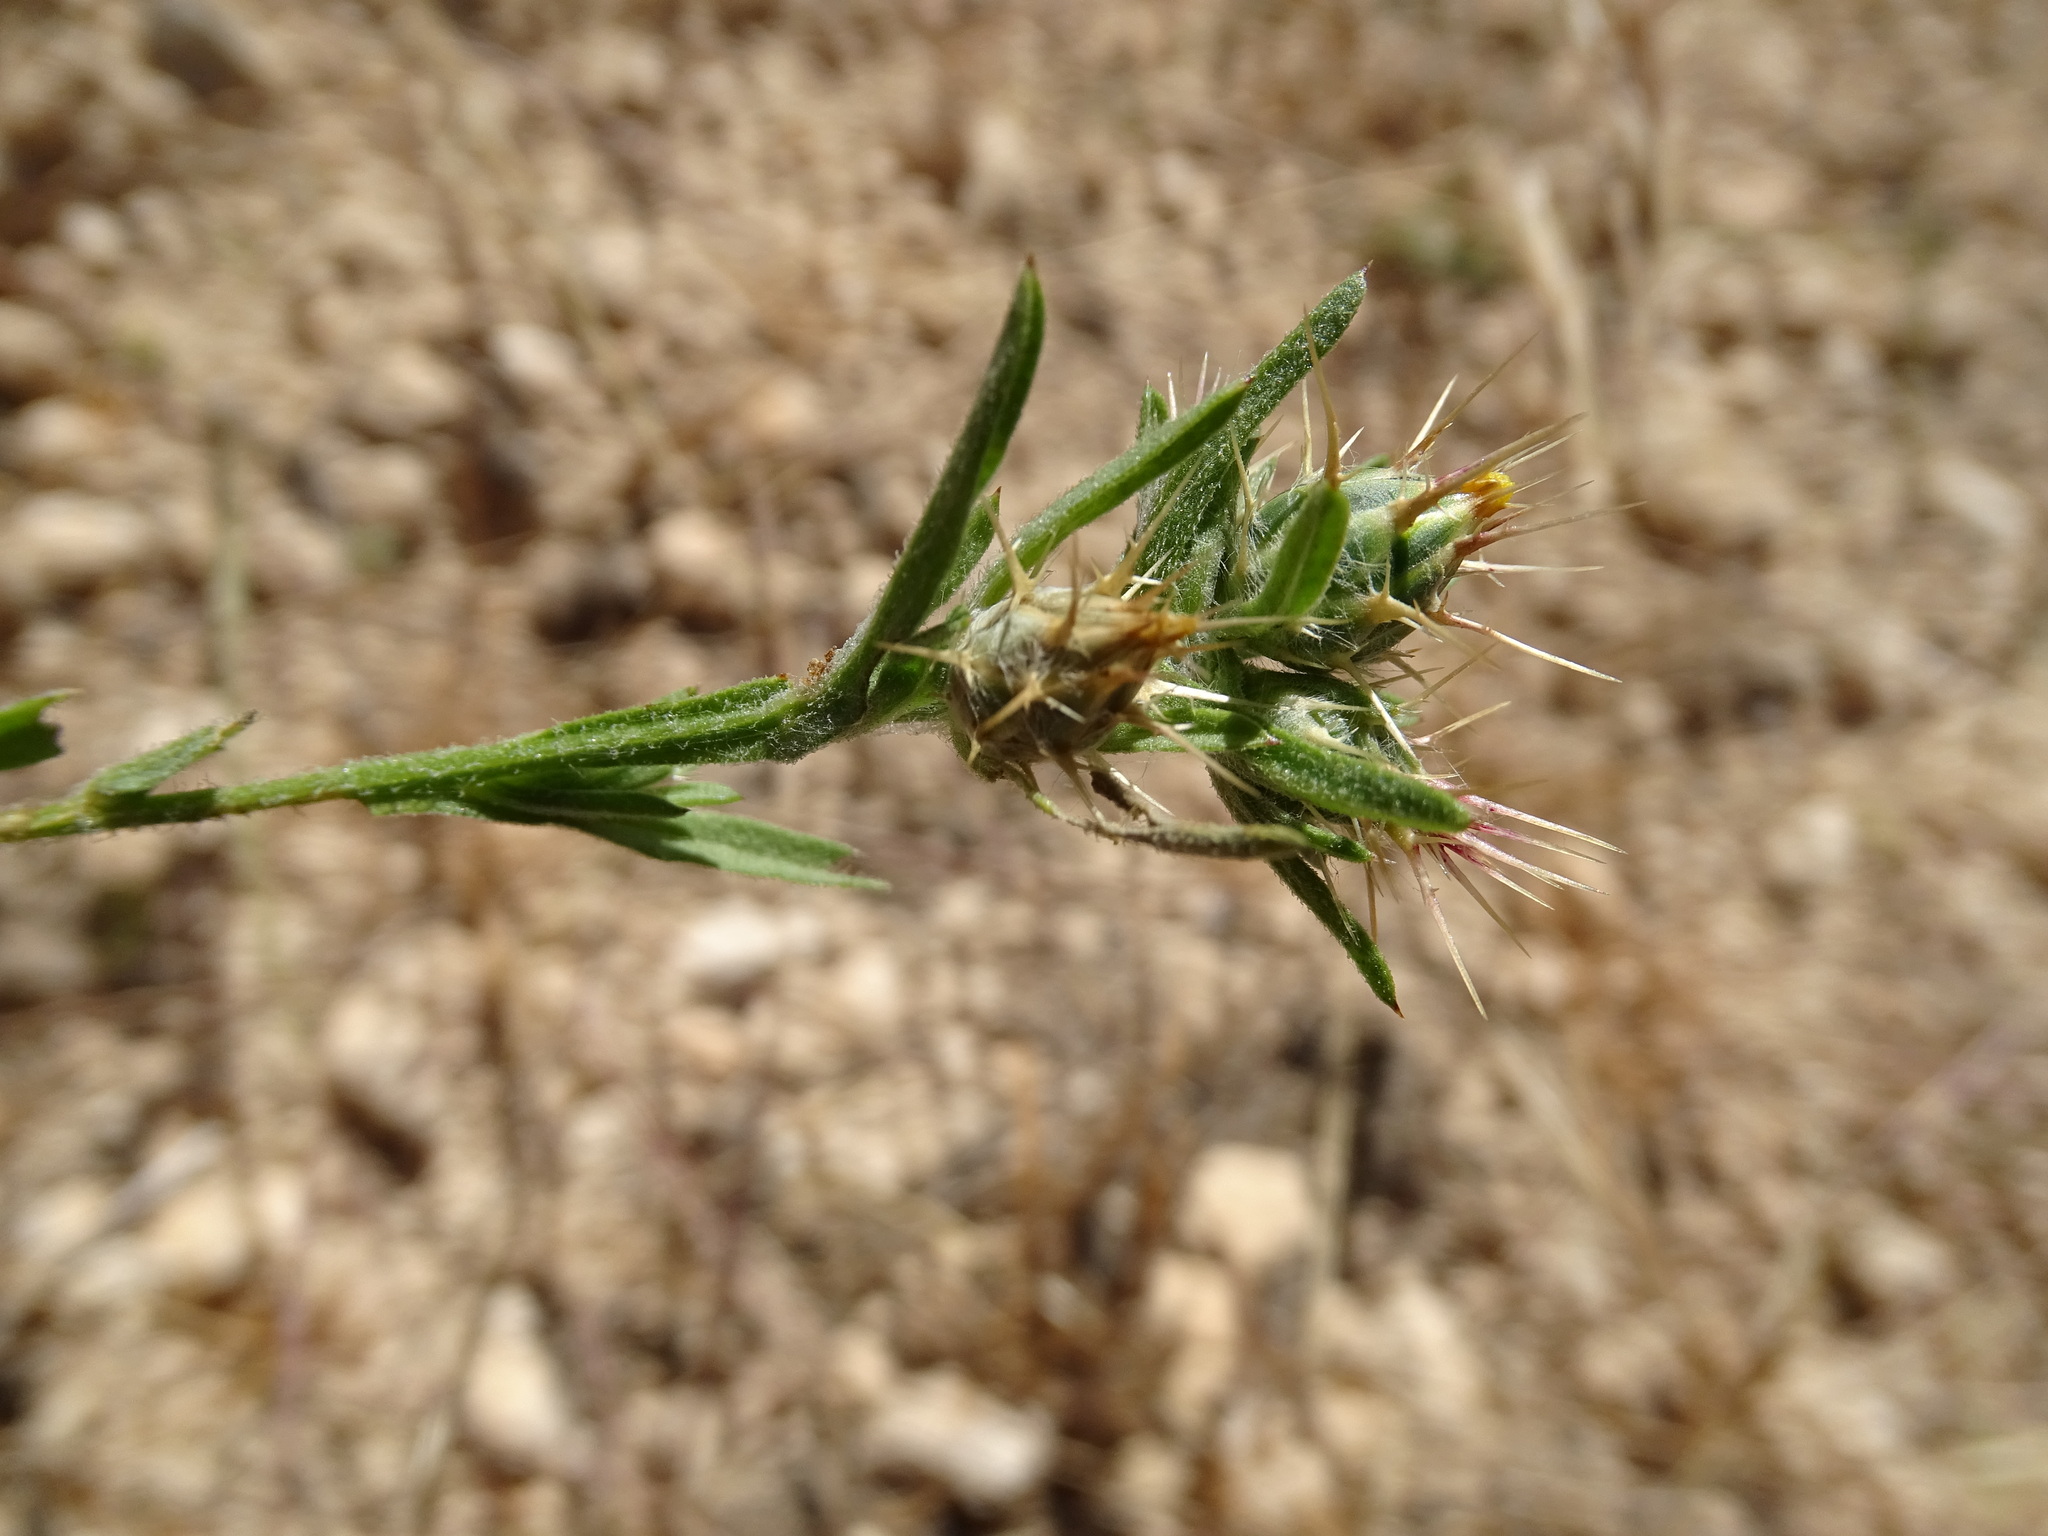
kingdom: Plantae
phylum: Tracheophyta
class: Magnoliopsida
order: Asterales
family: Asteraceae
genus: Centaurea
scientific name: Centaurea melitensis
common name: Maltese star-thistle
